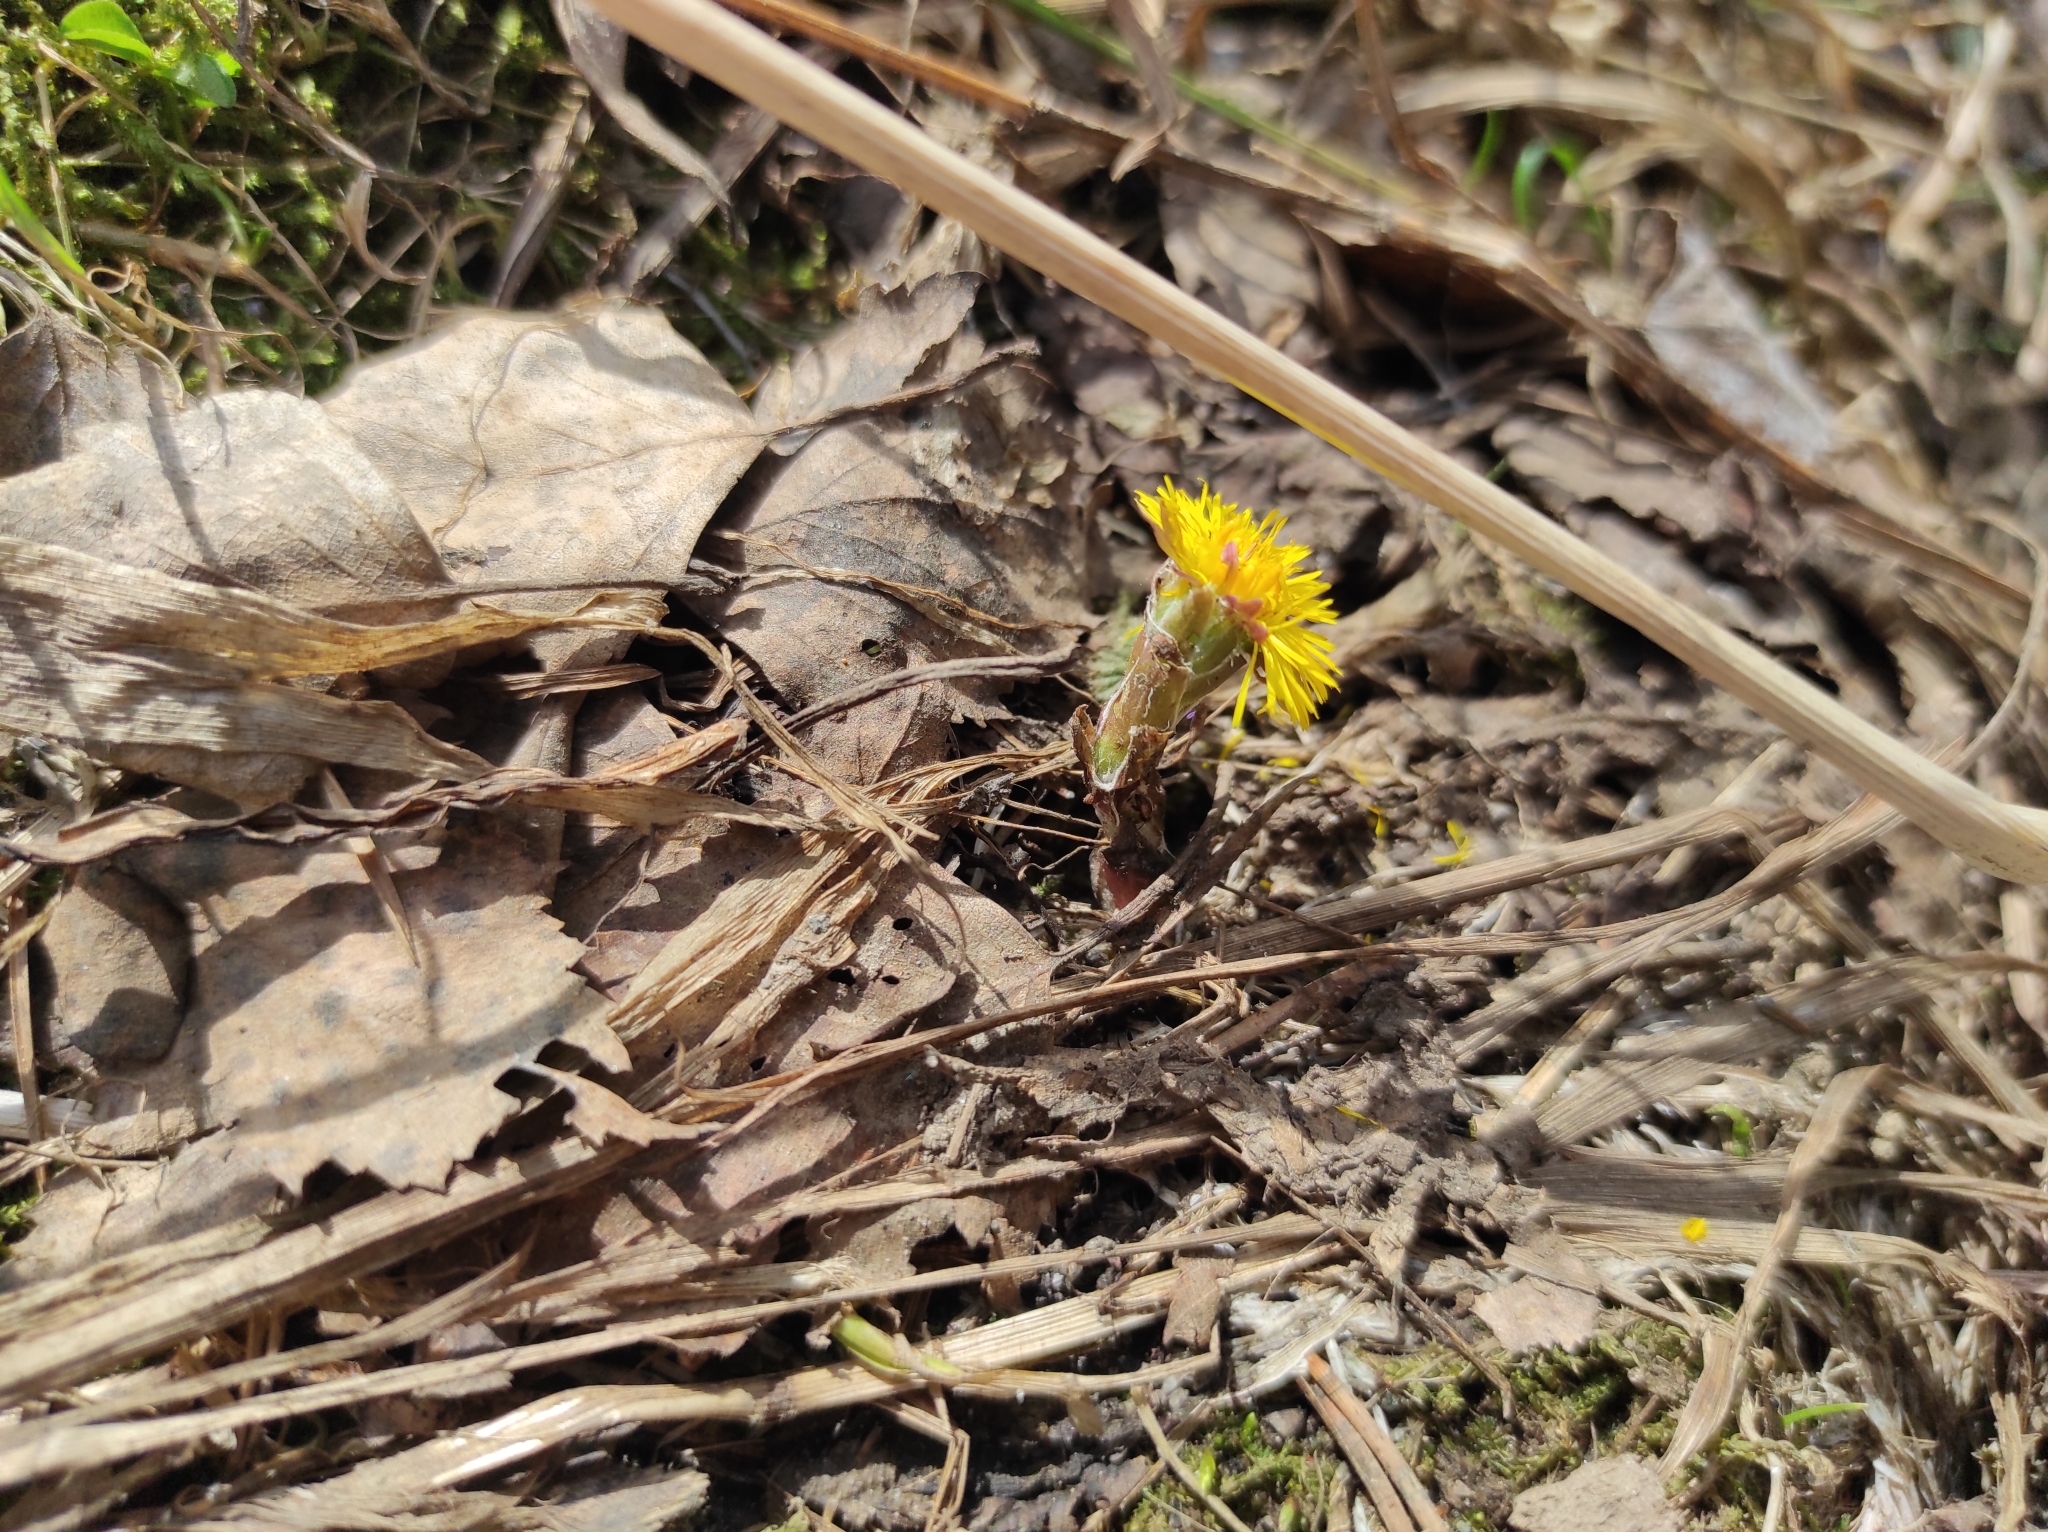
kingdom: Plantae
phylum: Tracheophyta
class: Magnoliopsida
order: Asterales
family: Asteraceae
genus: Tussilago
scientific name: Tussilago farfara
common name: Coltsfoot
